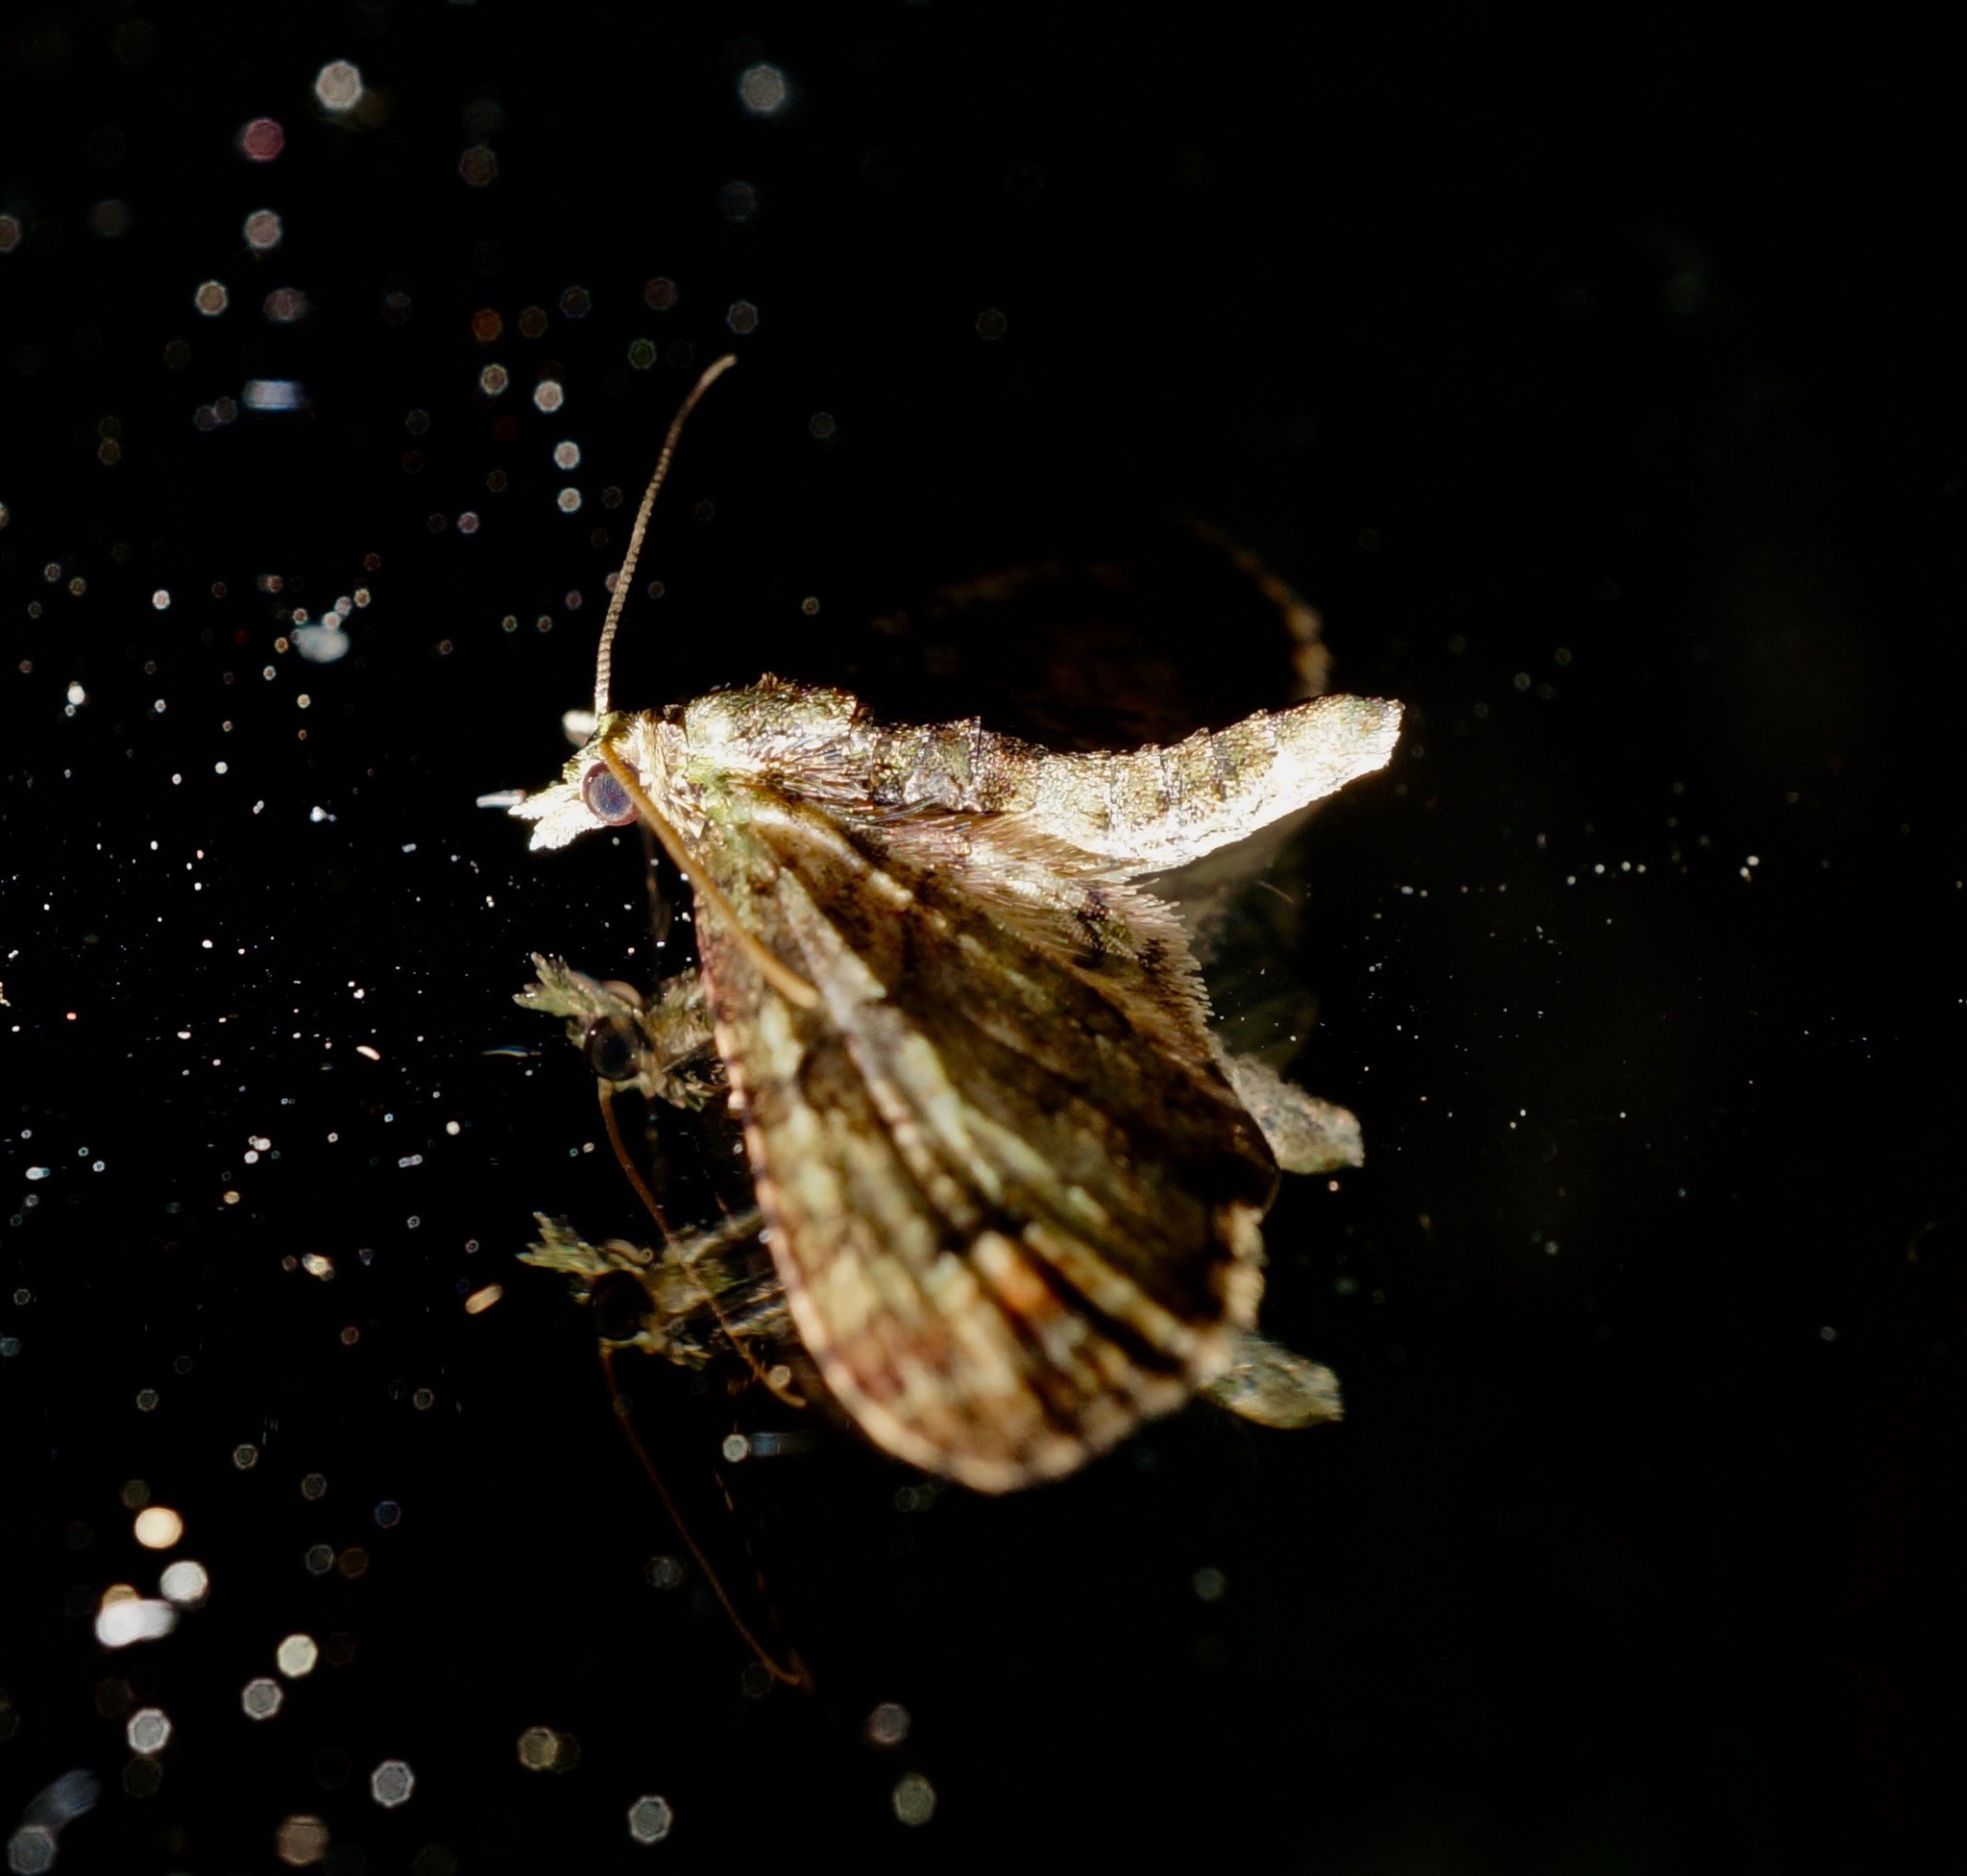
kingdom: Animalia
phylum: Arthropoda
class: Insecta
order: Lepidoptera
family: Geometridae
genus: Idaea
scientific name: Idaea mutanda
